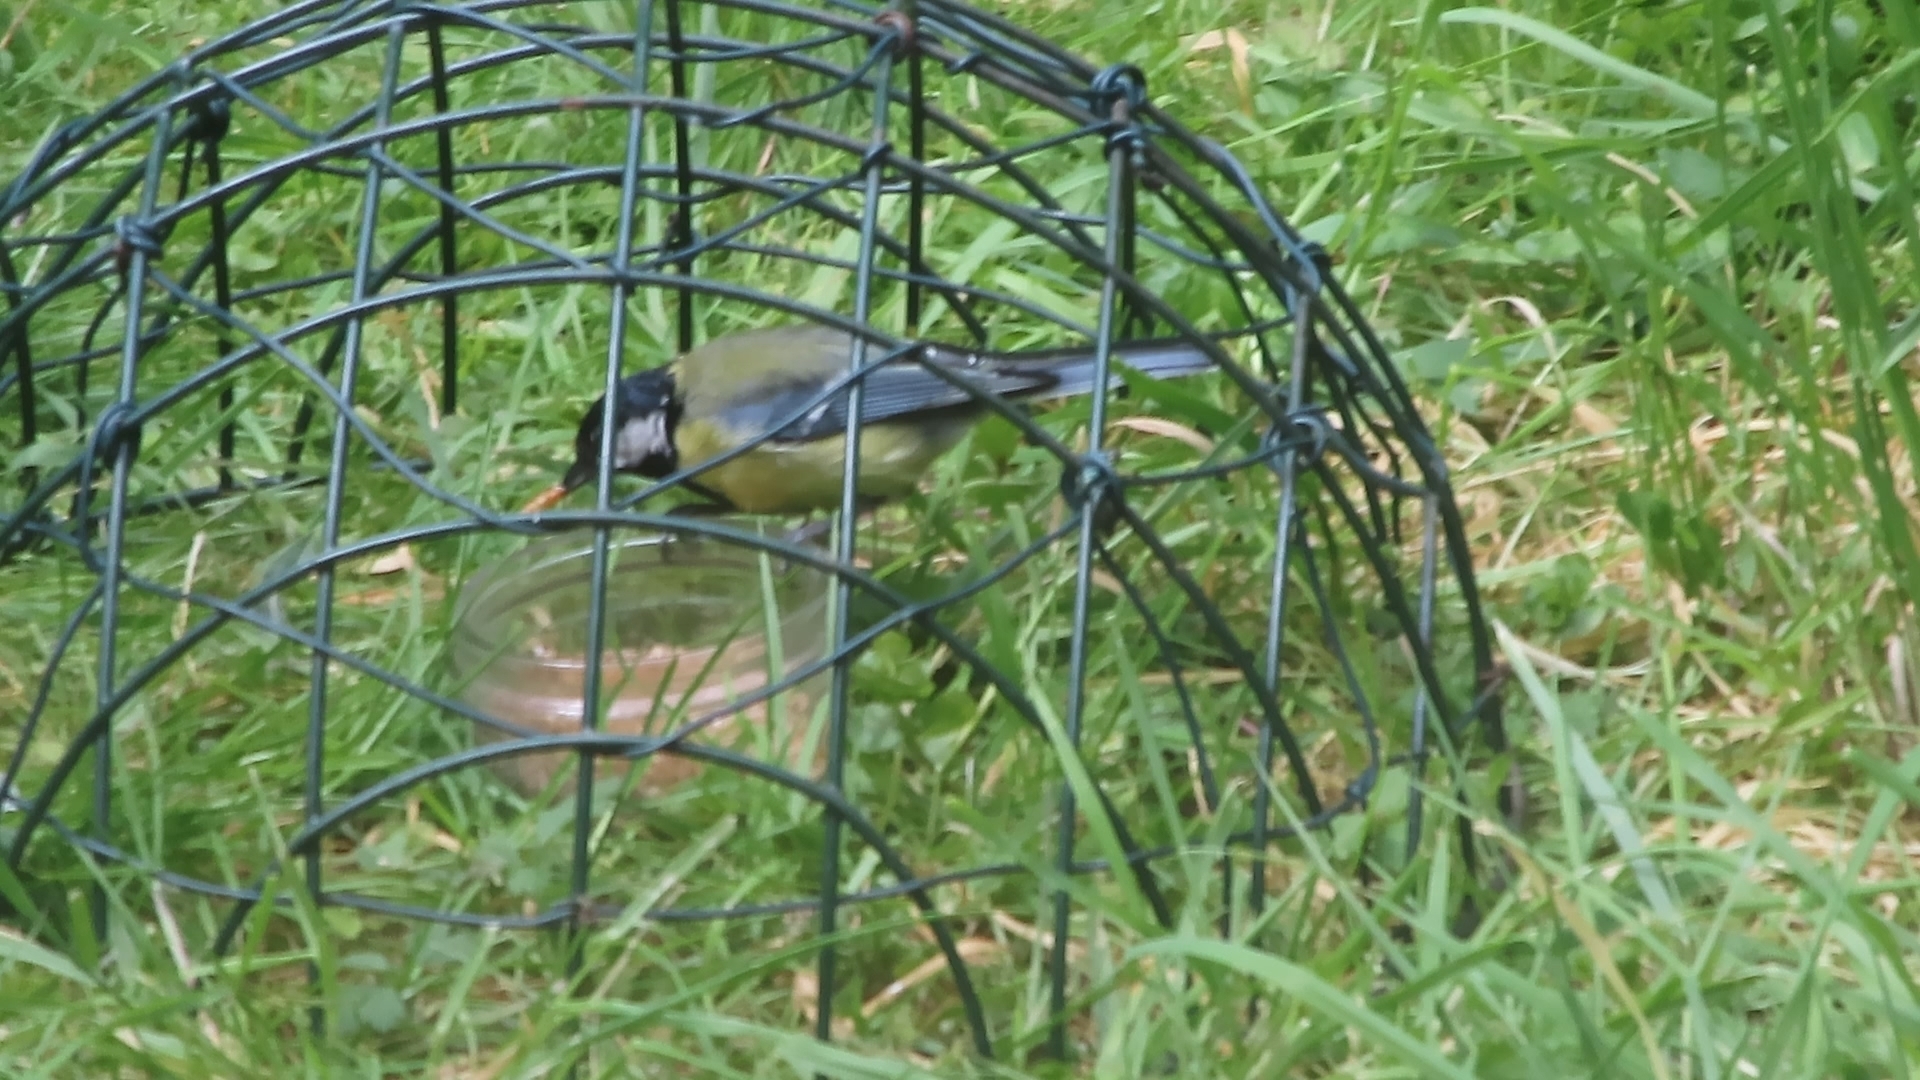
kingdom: Animalia
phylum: Chordata
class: Aves
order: Passeriformes
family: Paridae
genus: Parus
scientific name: Parus major
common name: Great tit
